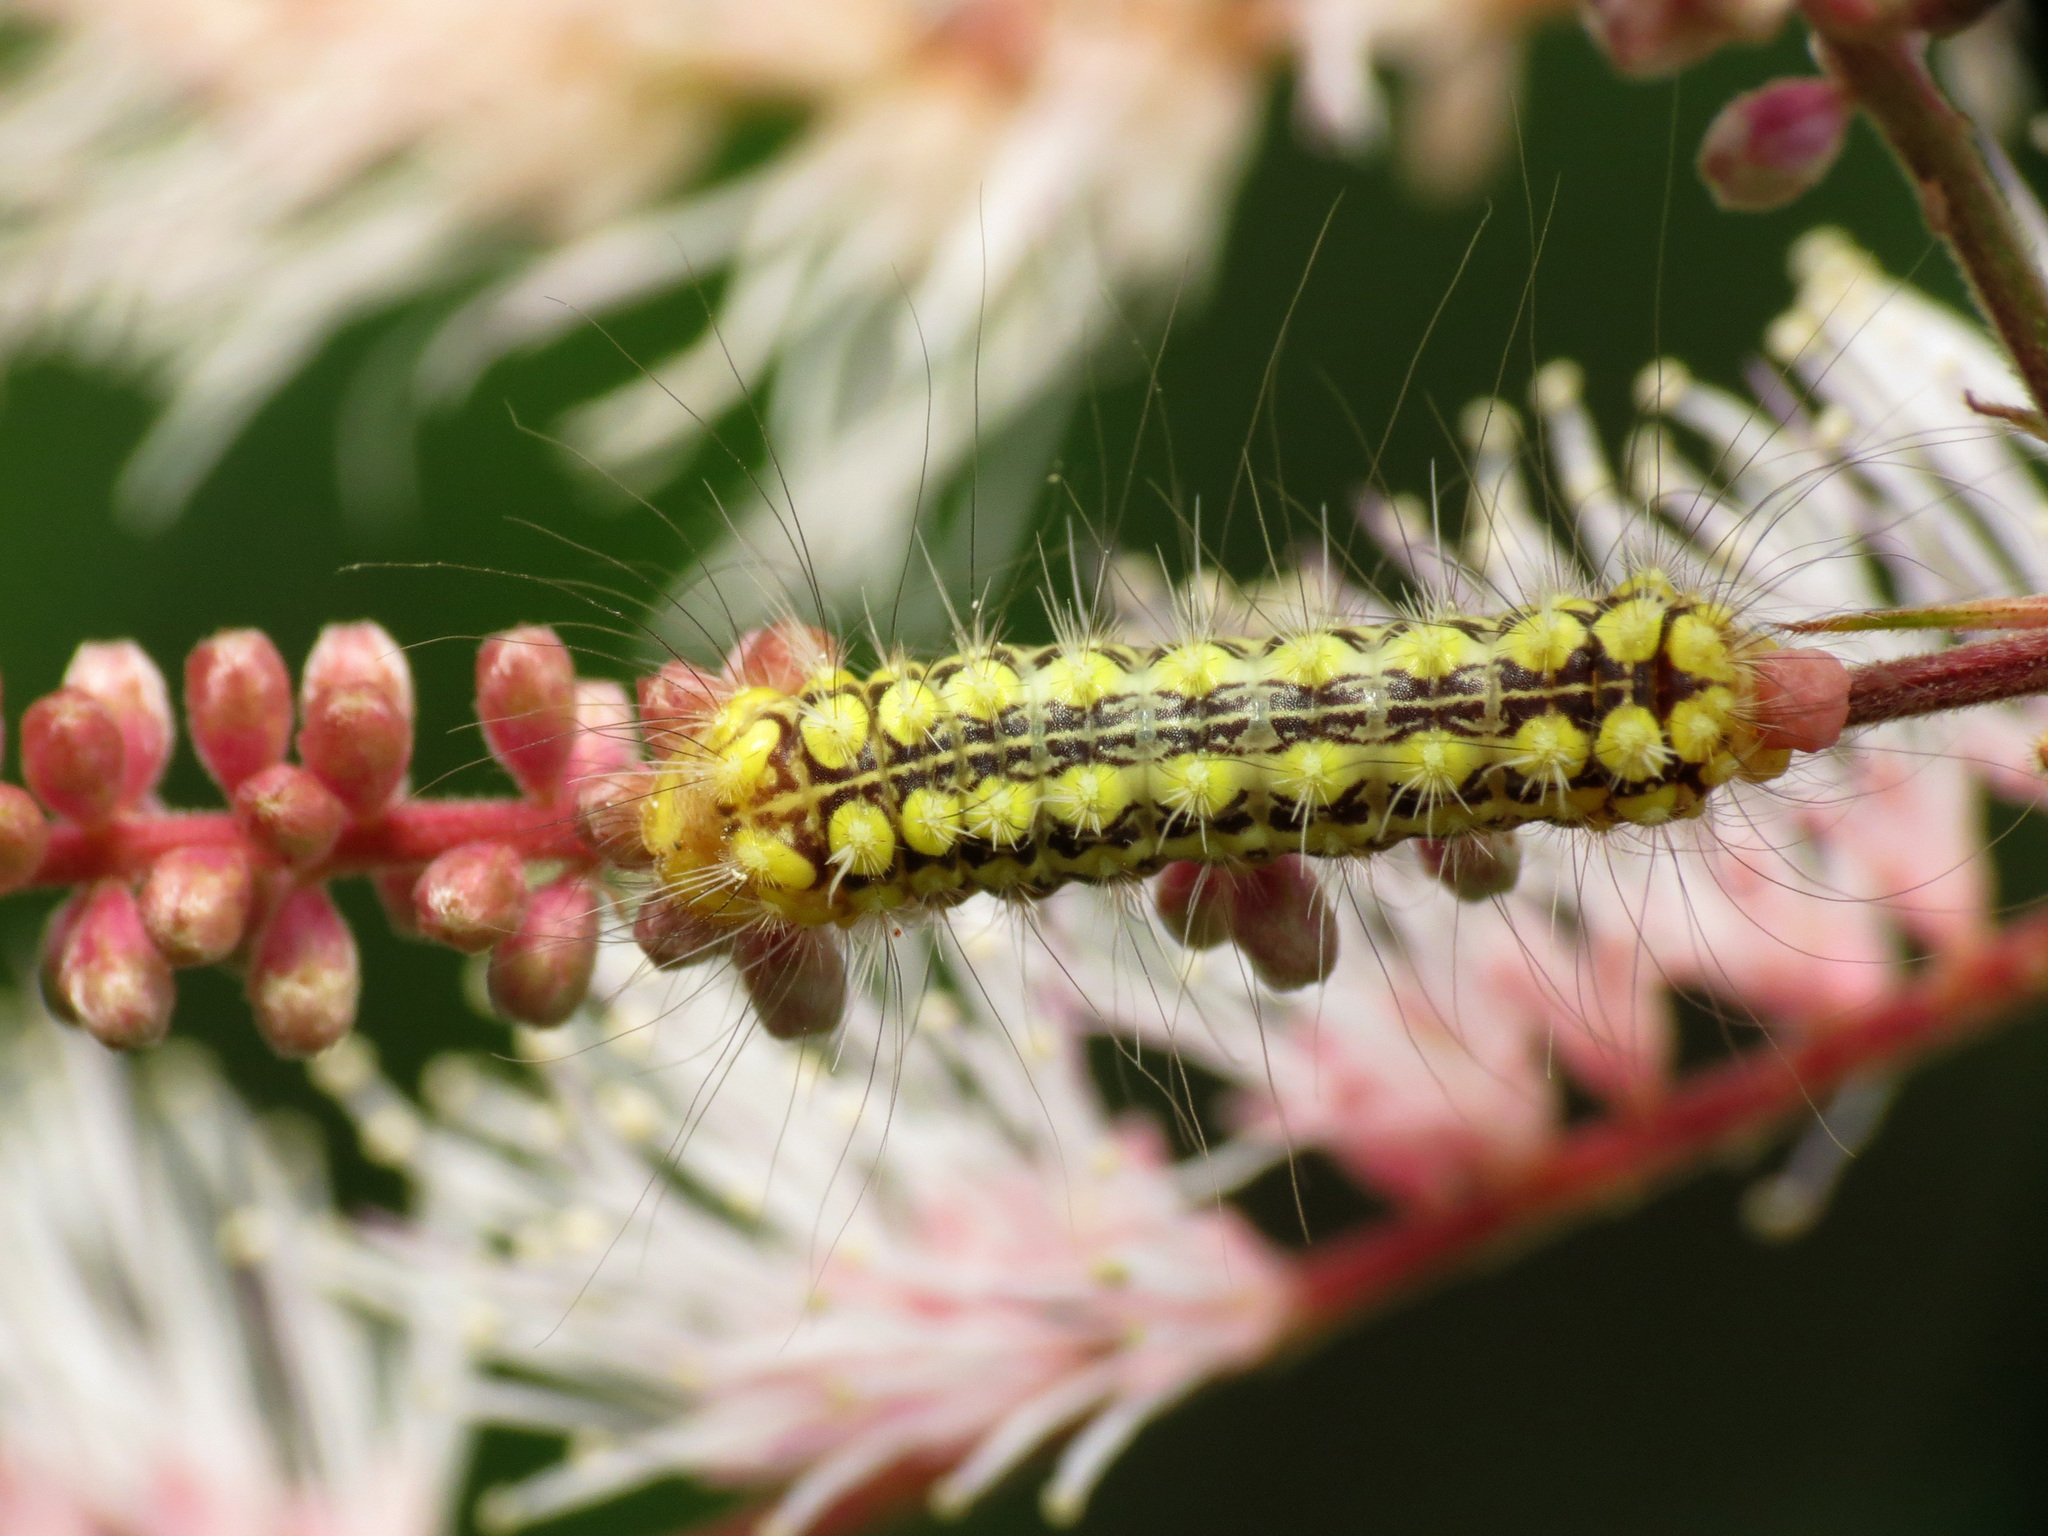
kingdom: Animalia
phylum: Arthropoda
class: Insecta
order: Lepidoptera
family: Megalopygidae
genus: Norape
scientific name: Norape tener
